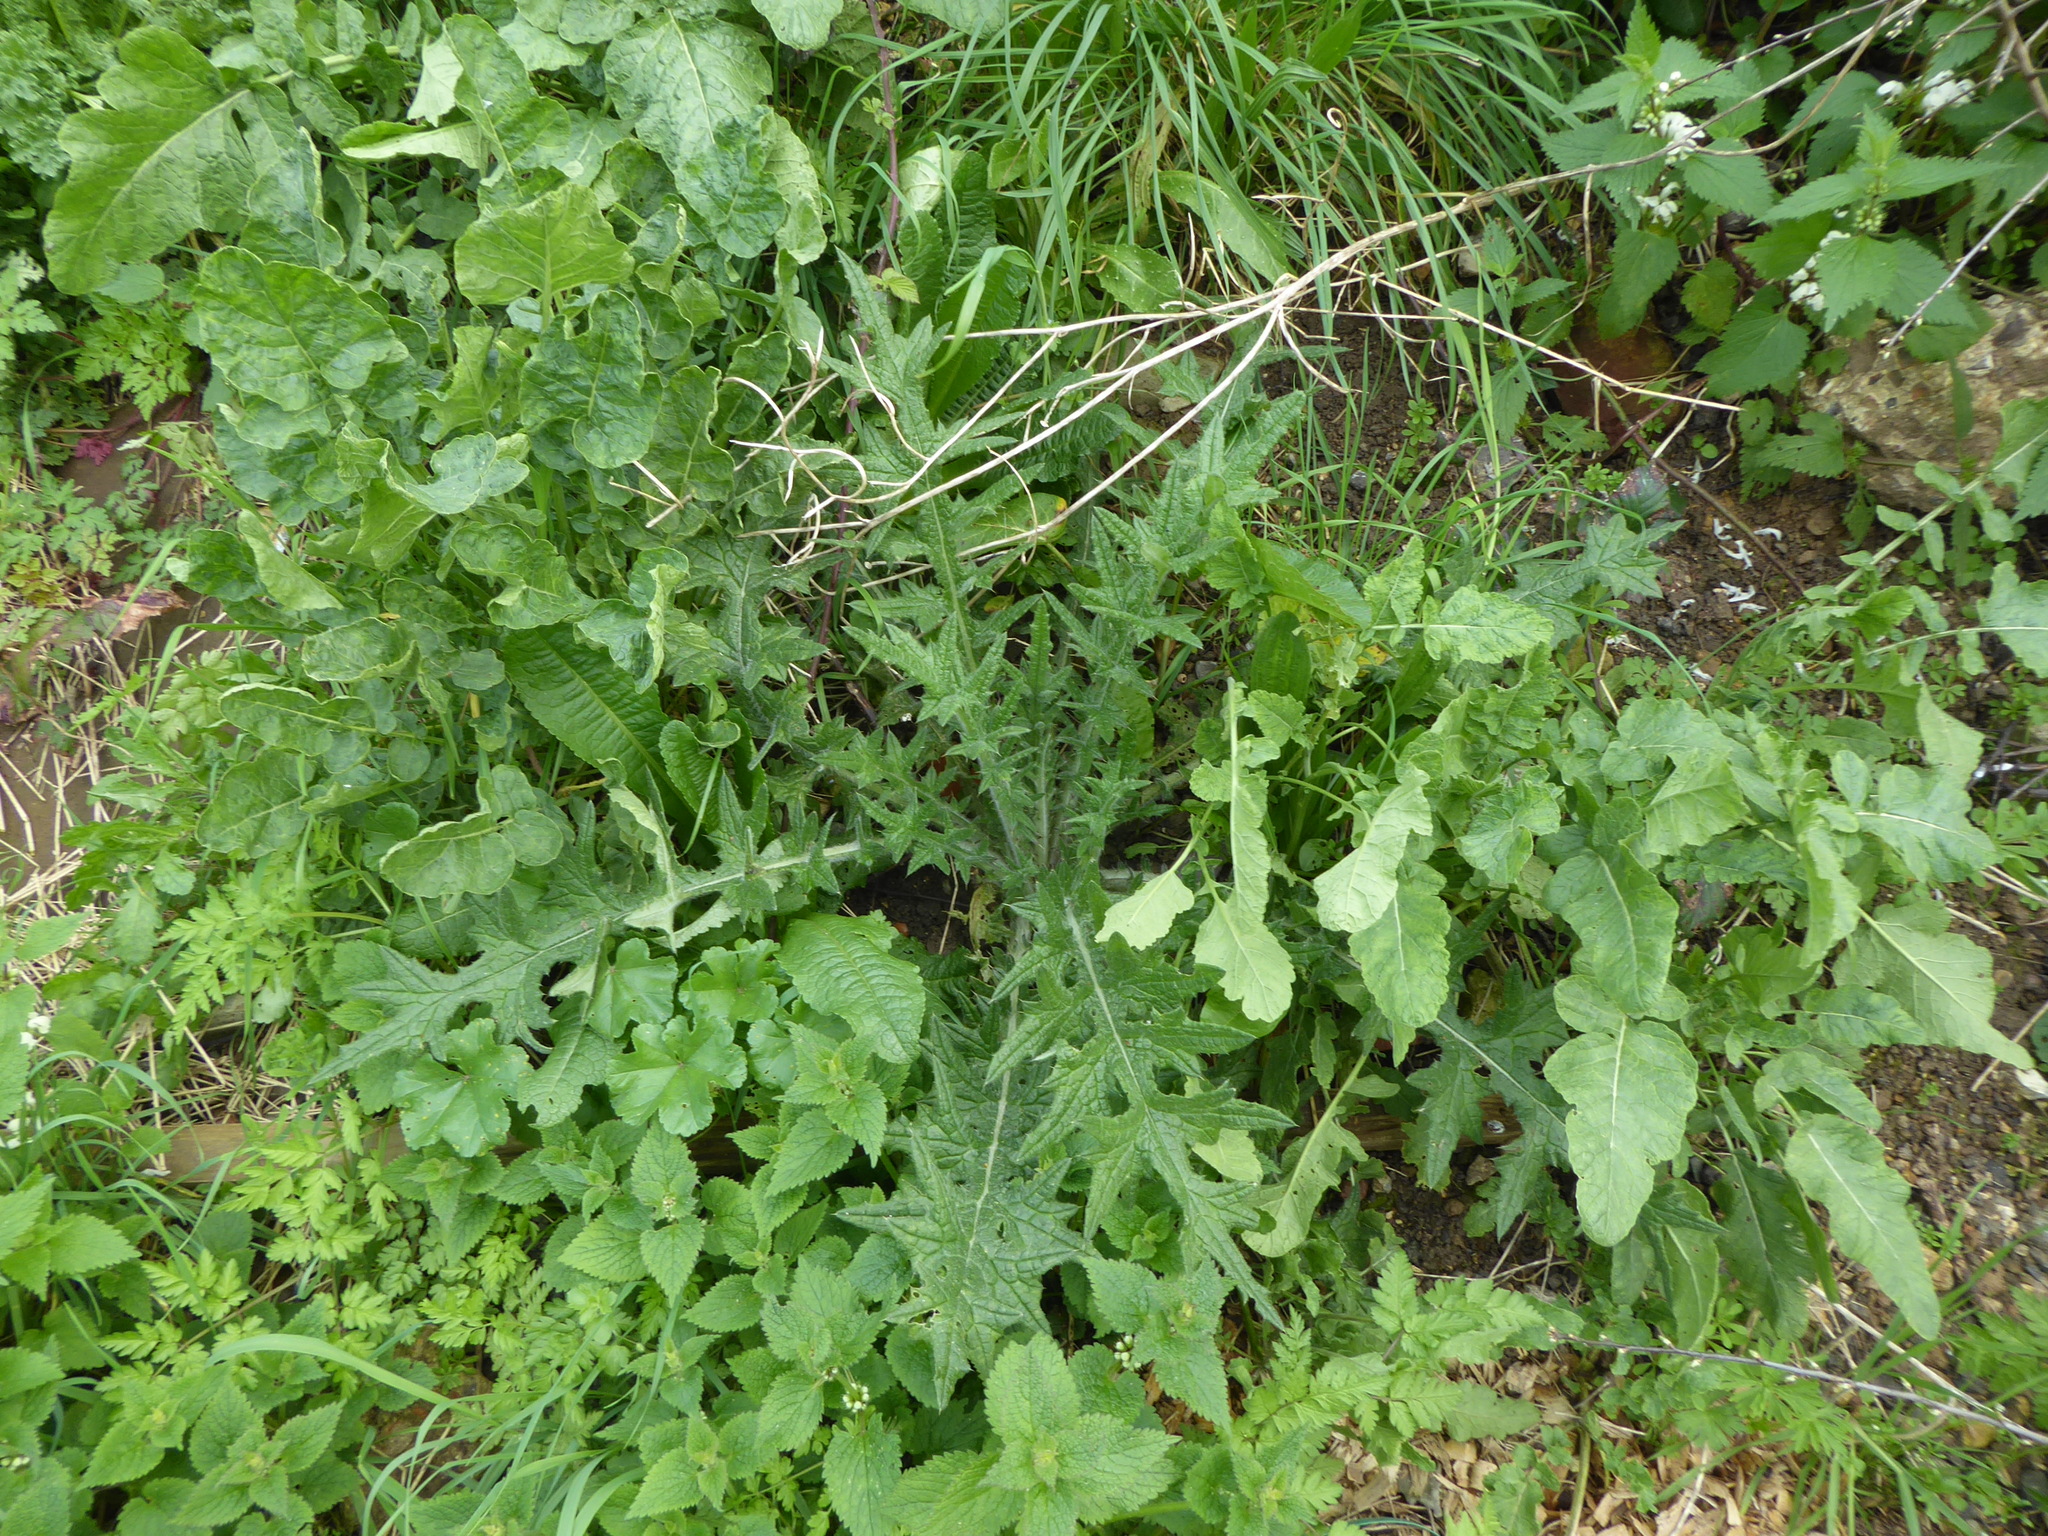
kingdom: Plantae
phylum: Tracheophyta
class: Magnoliopsida
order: Asterales
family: Asteraceae
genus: Cirsium
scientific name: Cirsium vulgare
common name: Bull thistle
